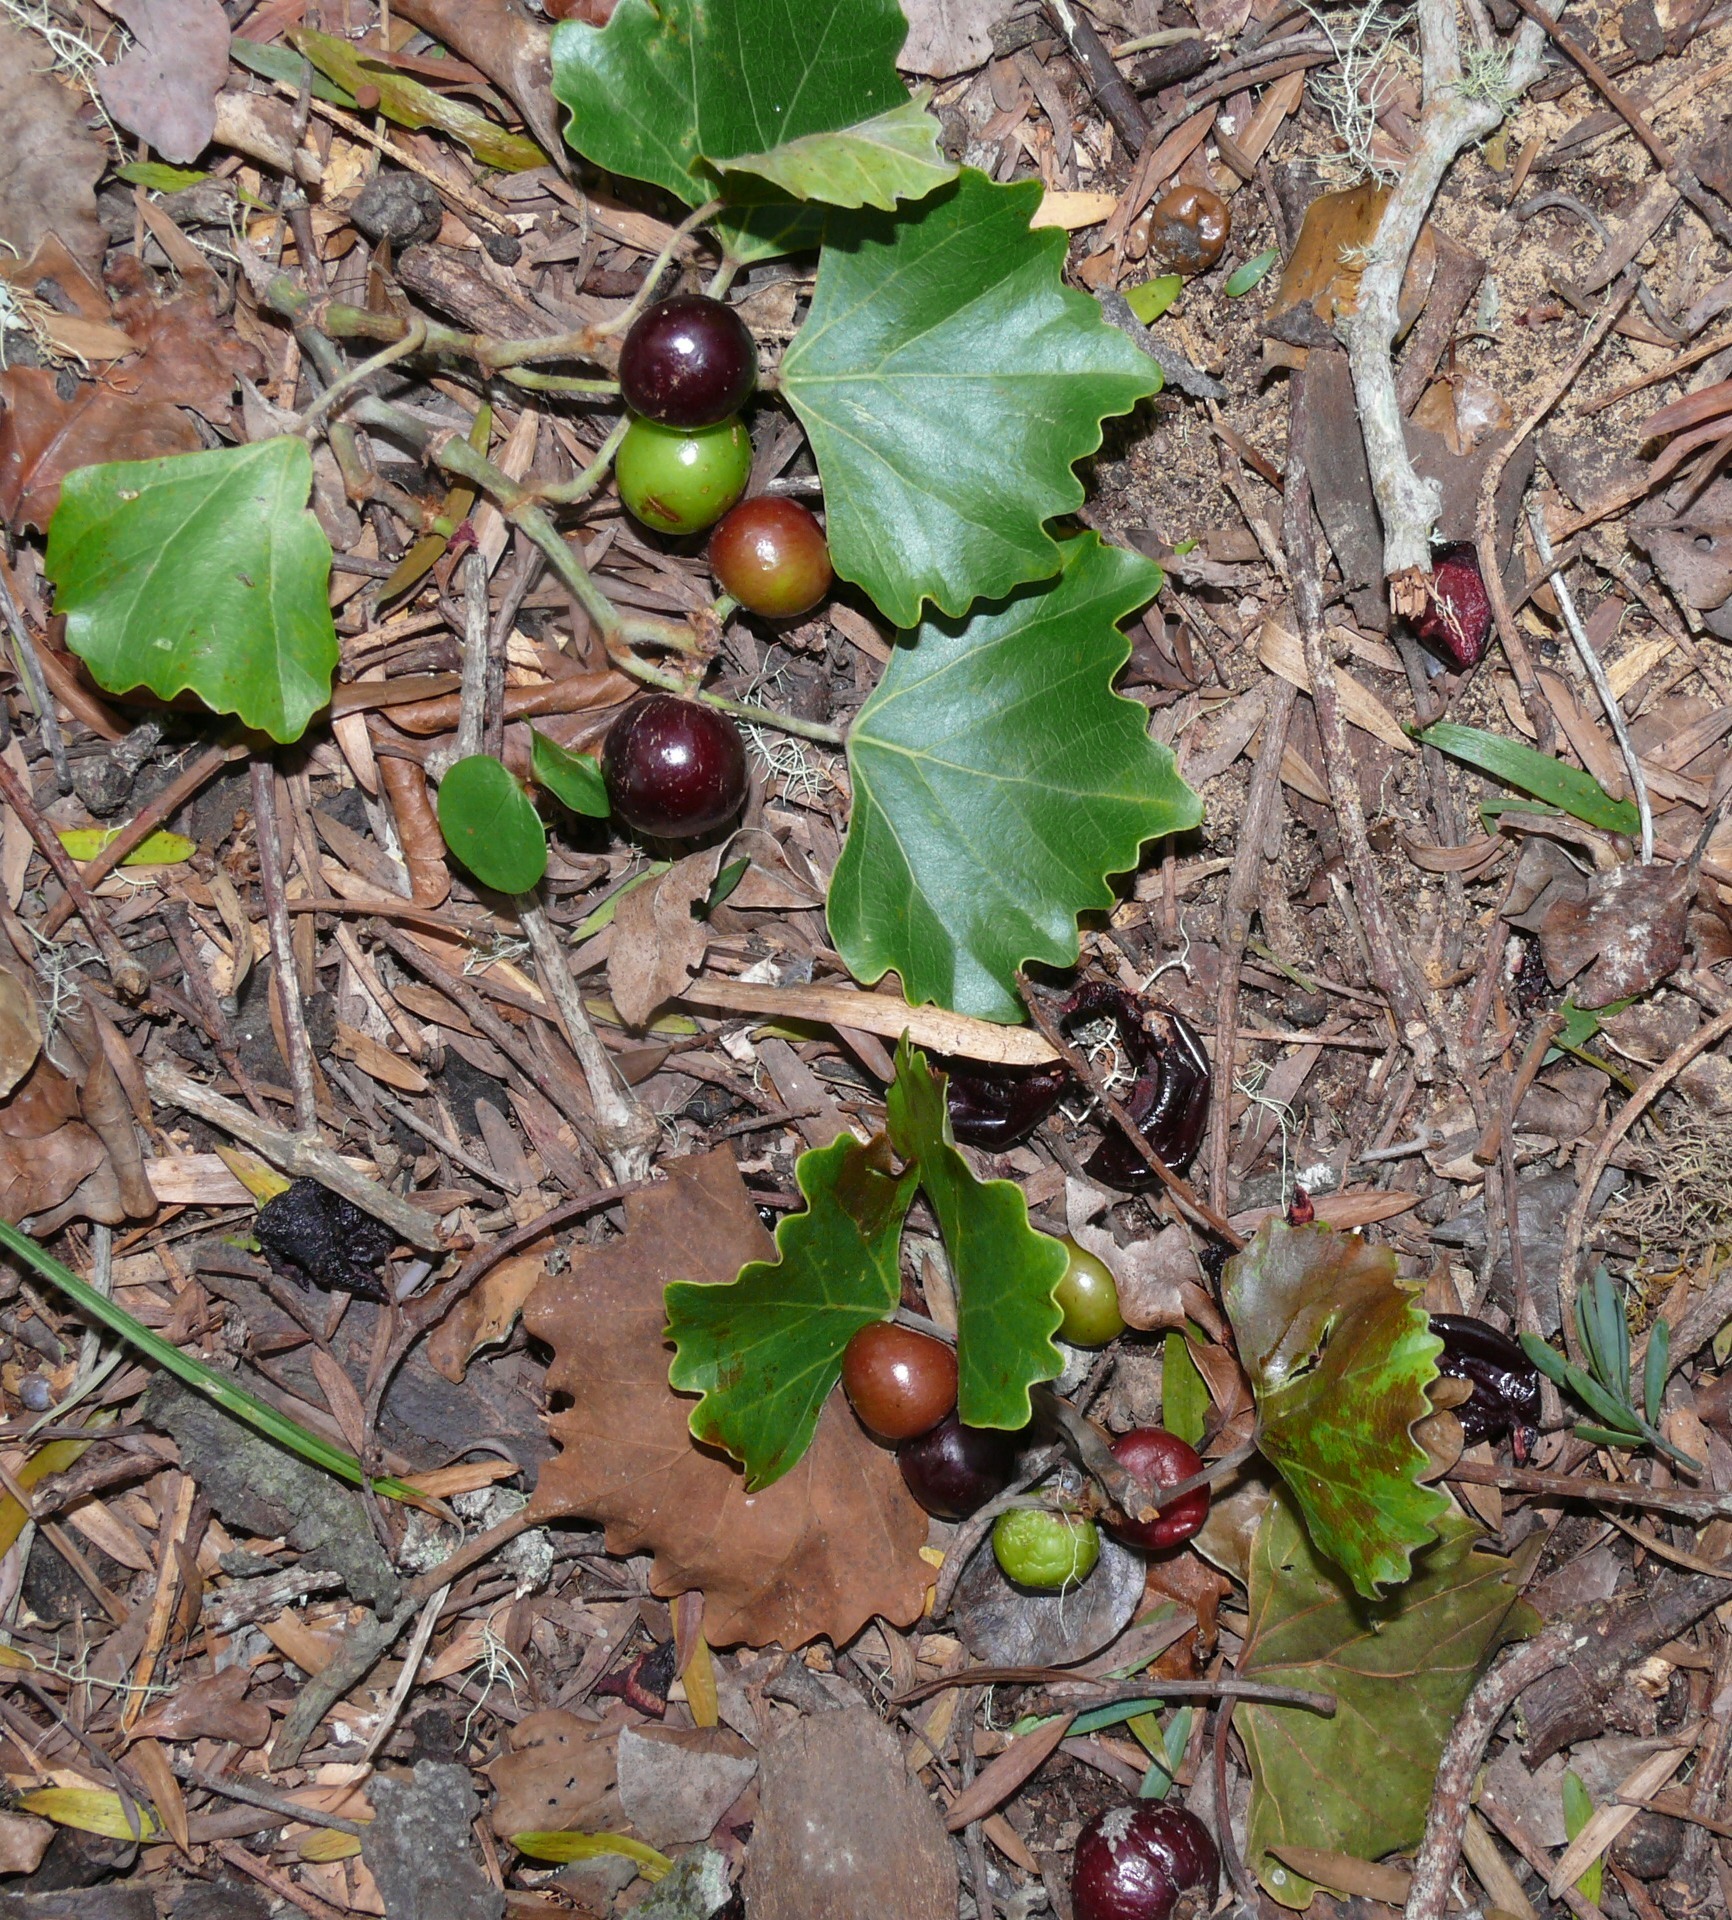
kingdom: Plantae
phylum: Tracheophyta
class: Magnoliopsida
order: Vitales
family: Vitaceae
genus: Rhoicissus
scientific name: Rhoicissus tomentosa
